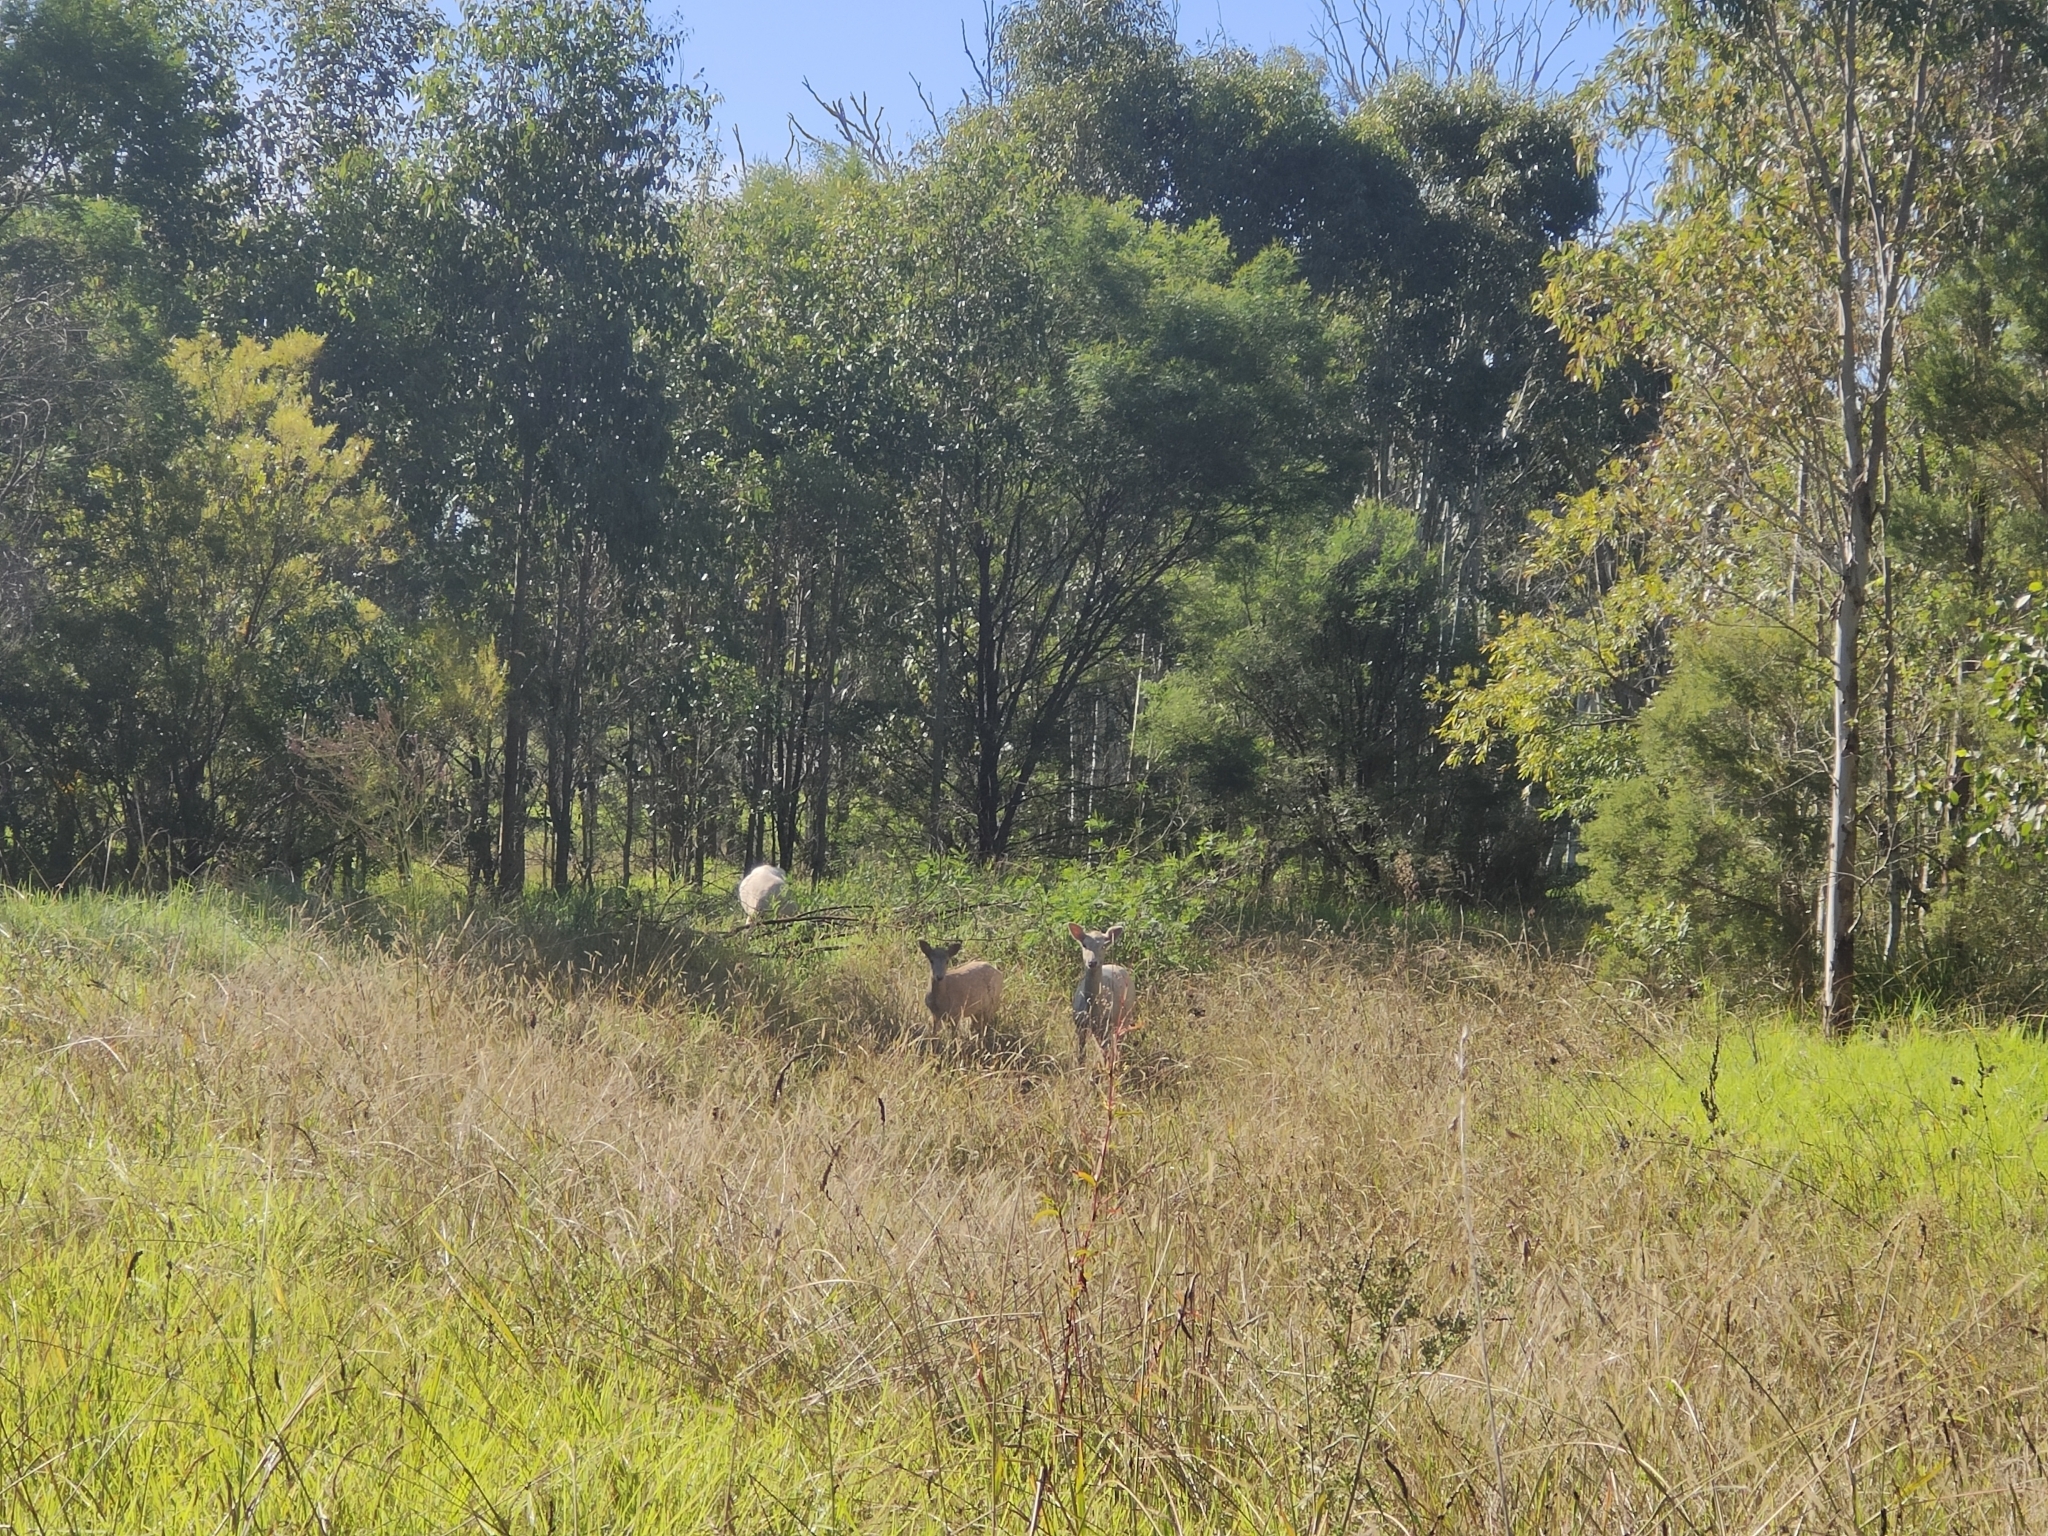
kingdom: Animalia
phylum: Chordata
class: Mammalia
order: Artiodactyla
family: Cervidae
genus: Dama
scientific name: Dama dama
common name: Fallow deer
